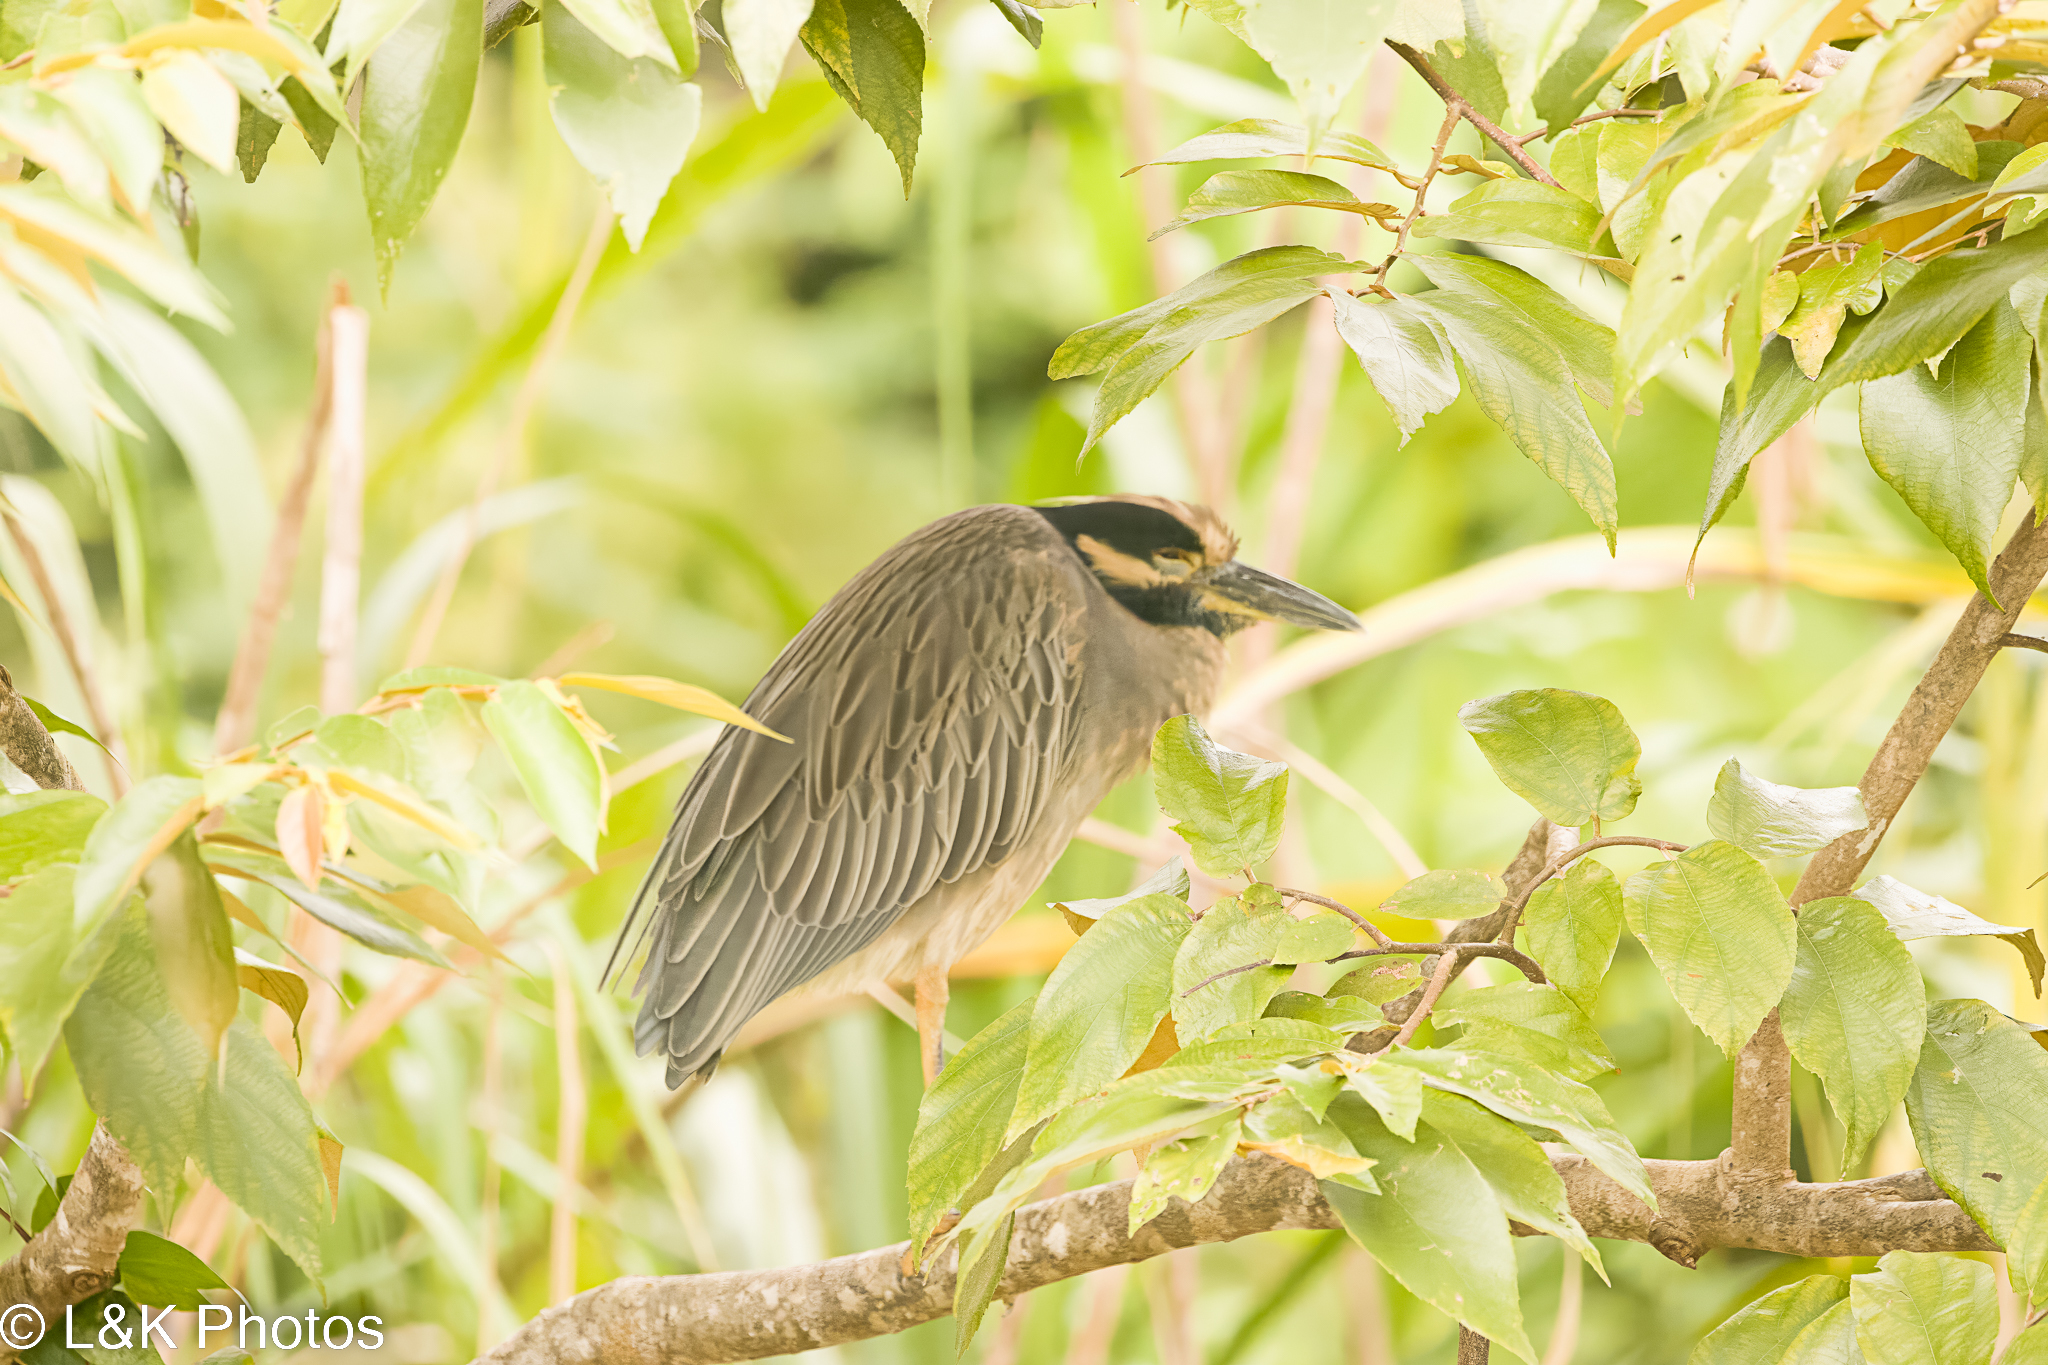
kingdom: Animalia
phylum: Chordata
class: Aves
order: Pelecaniformes
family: Ardeidae
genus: Nyctanassa
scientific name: Nyctanassa violacea
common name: Yellow-crowned night heron
